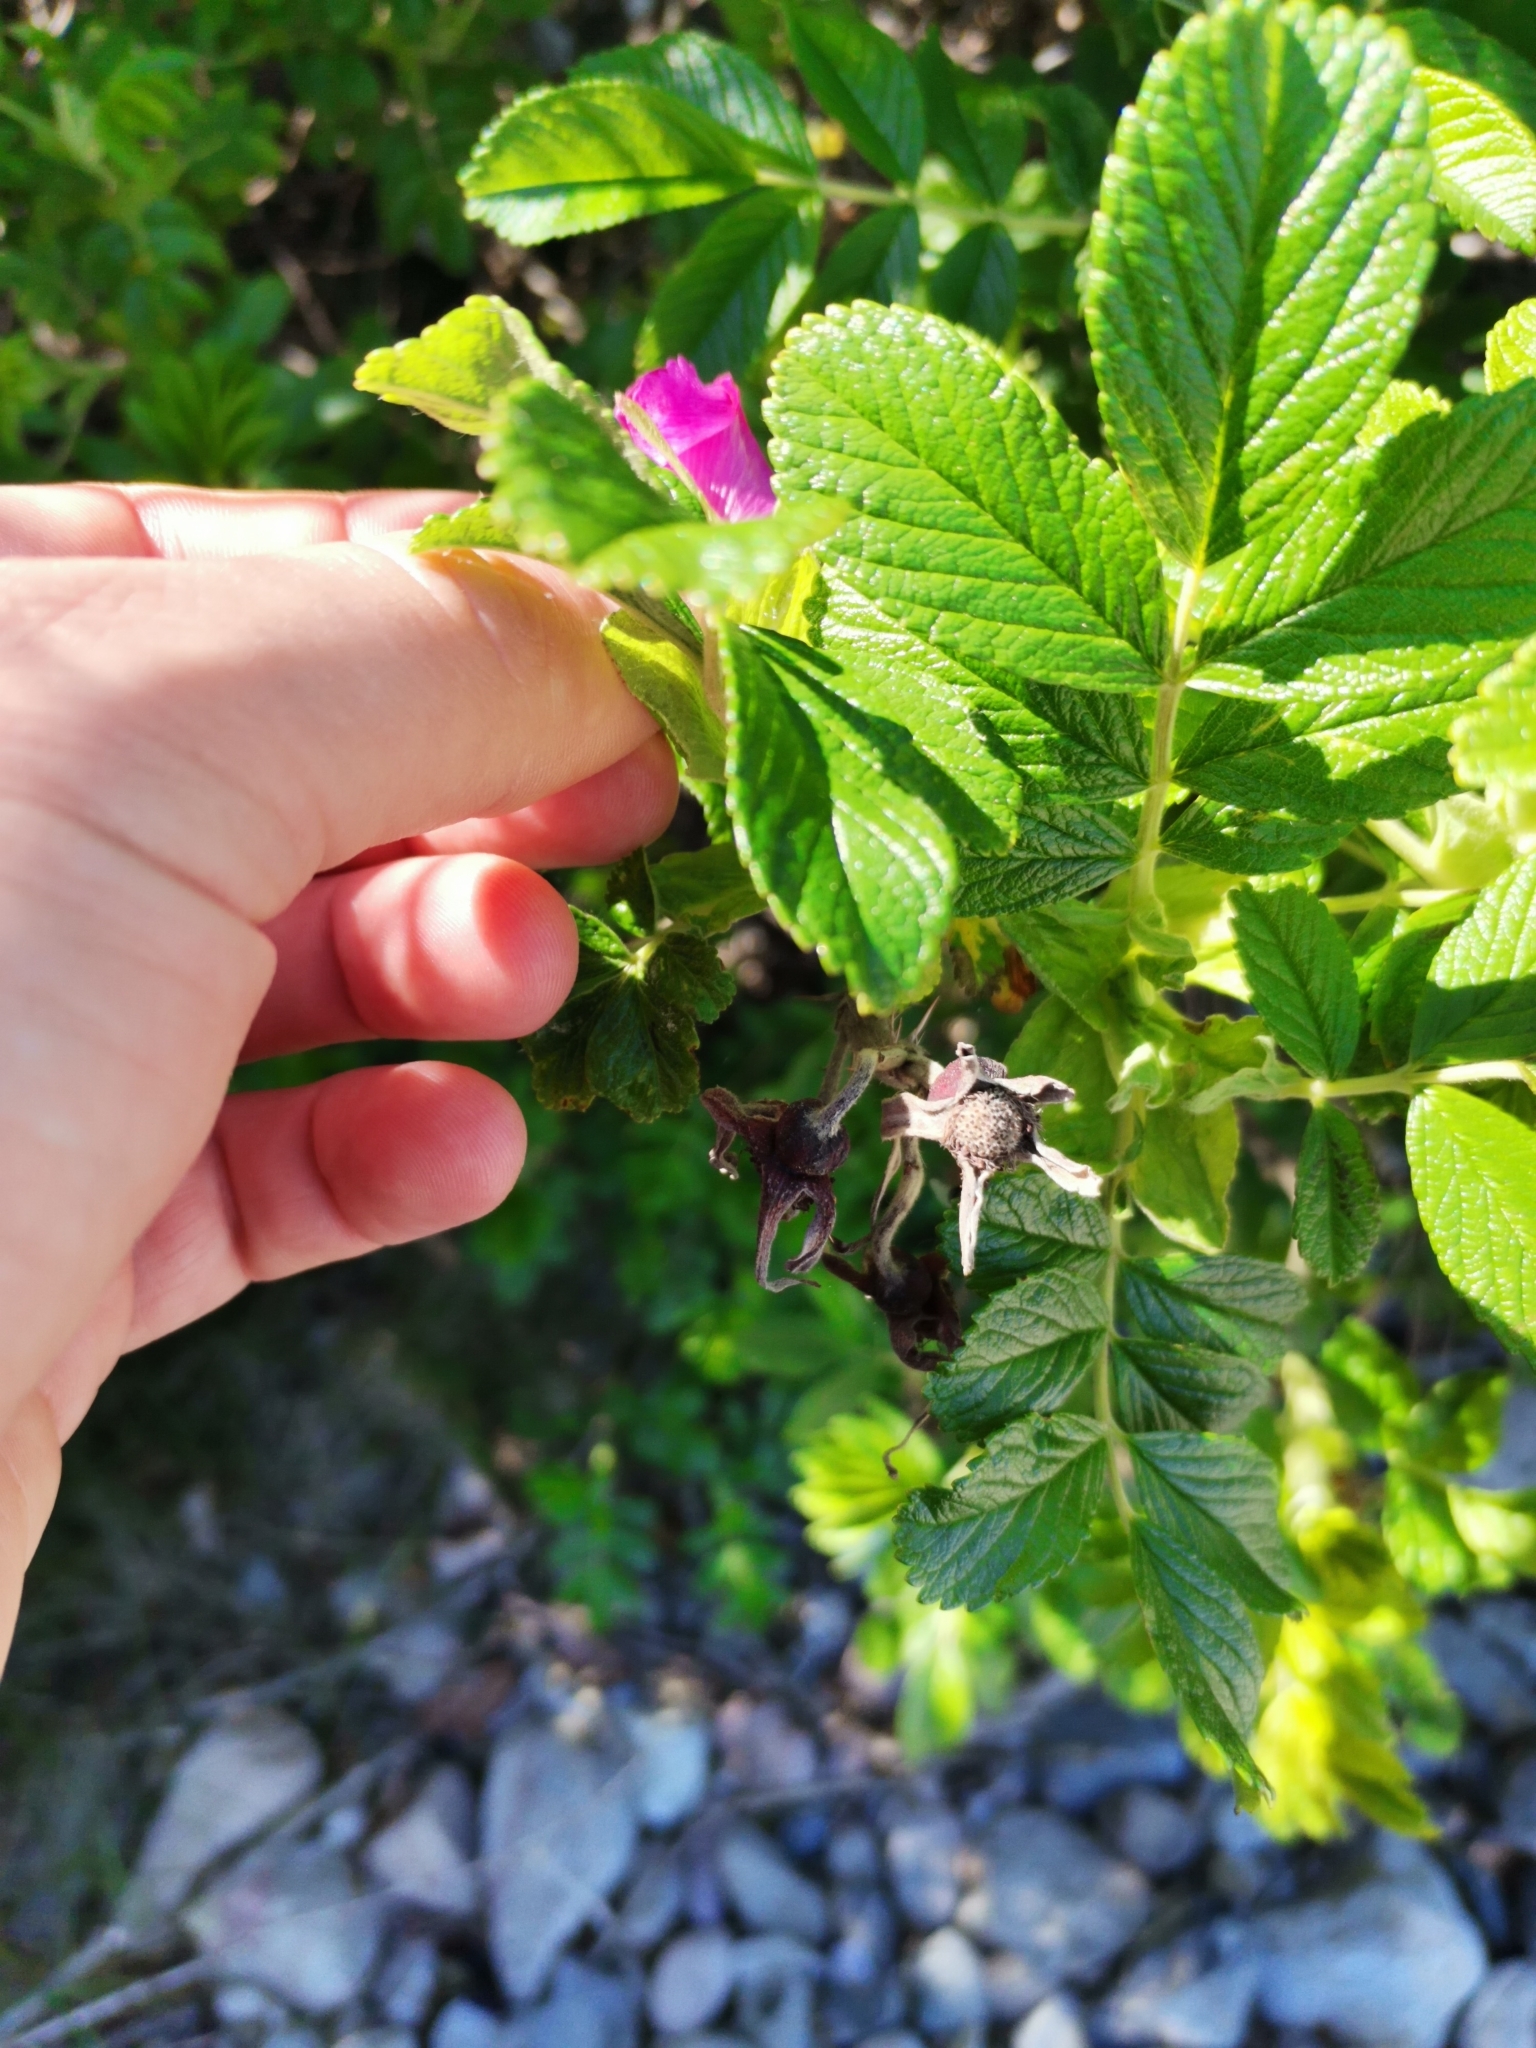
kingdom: Plantae
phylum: Tracheophyta
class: Magnoliopsida
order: Rosales
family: Rosaceae
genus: Rosa
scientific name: Rosa rugosa
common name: Japanese rose
